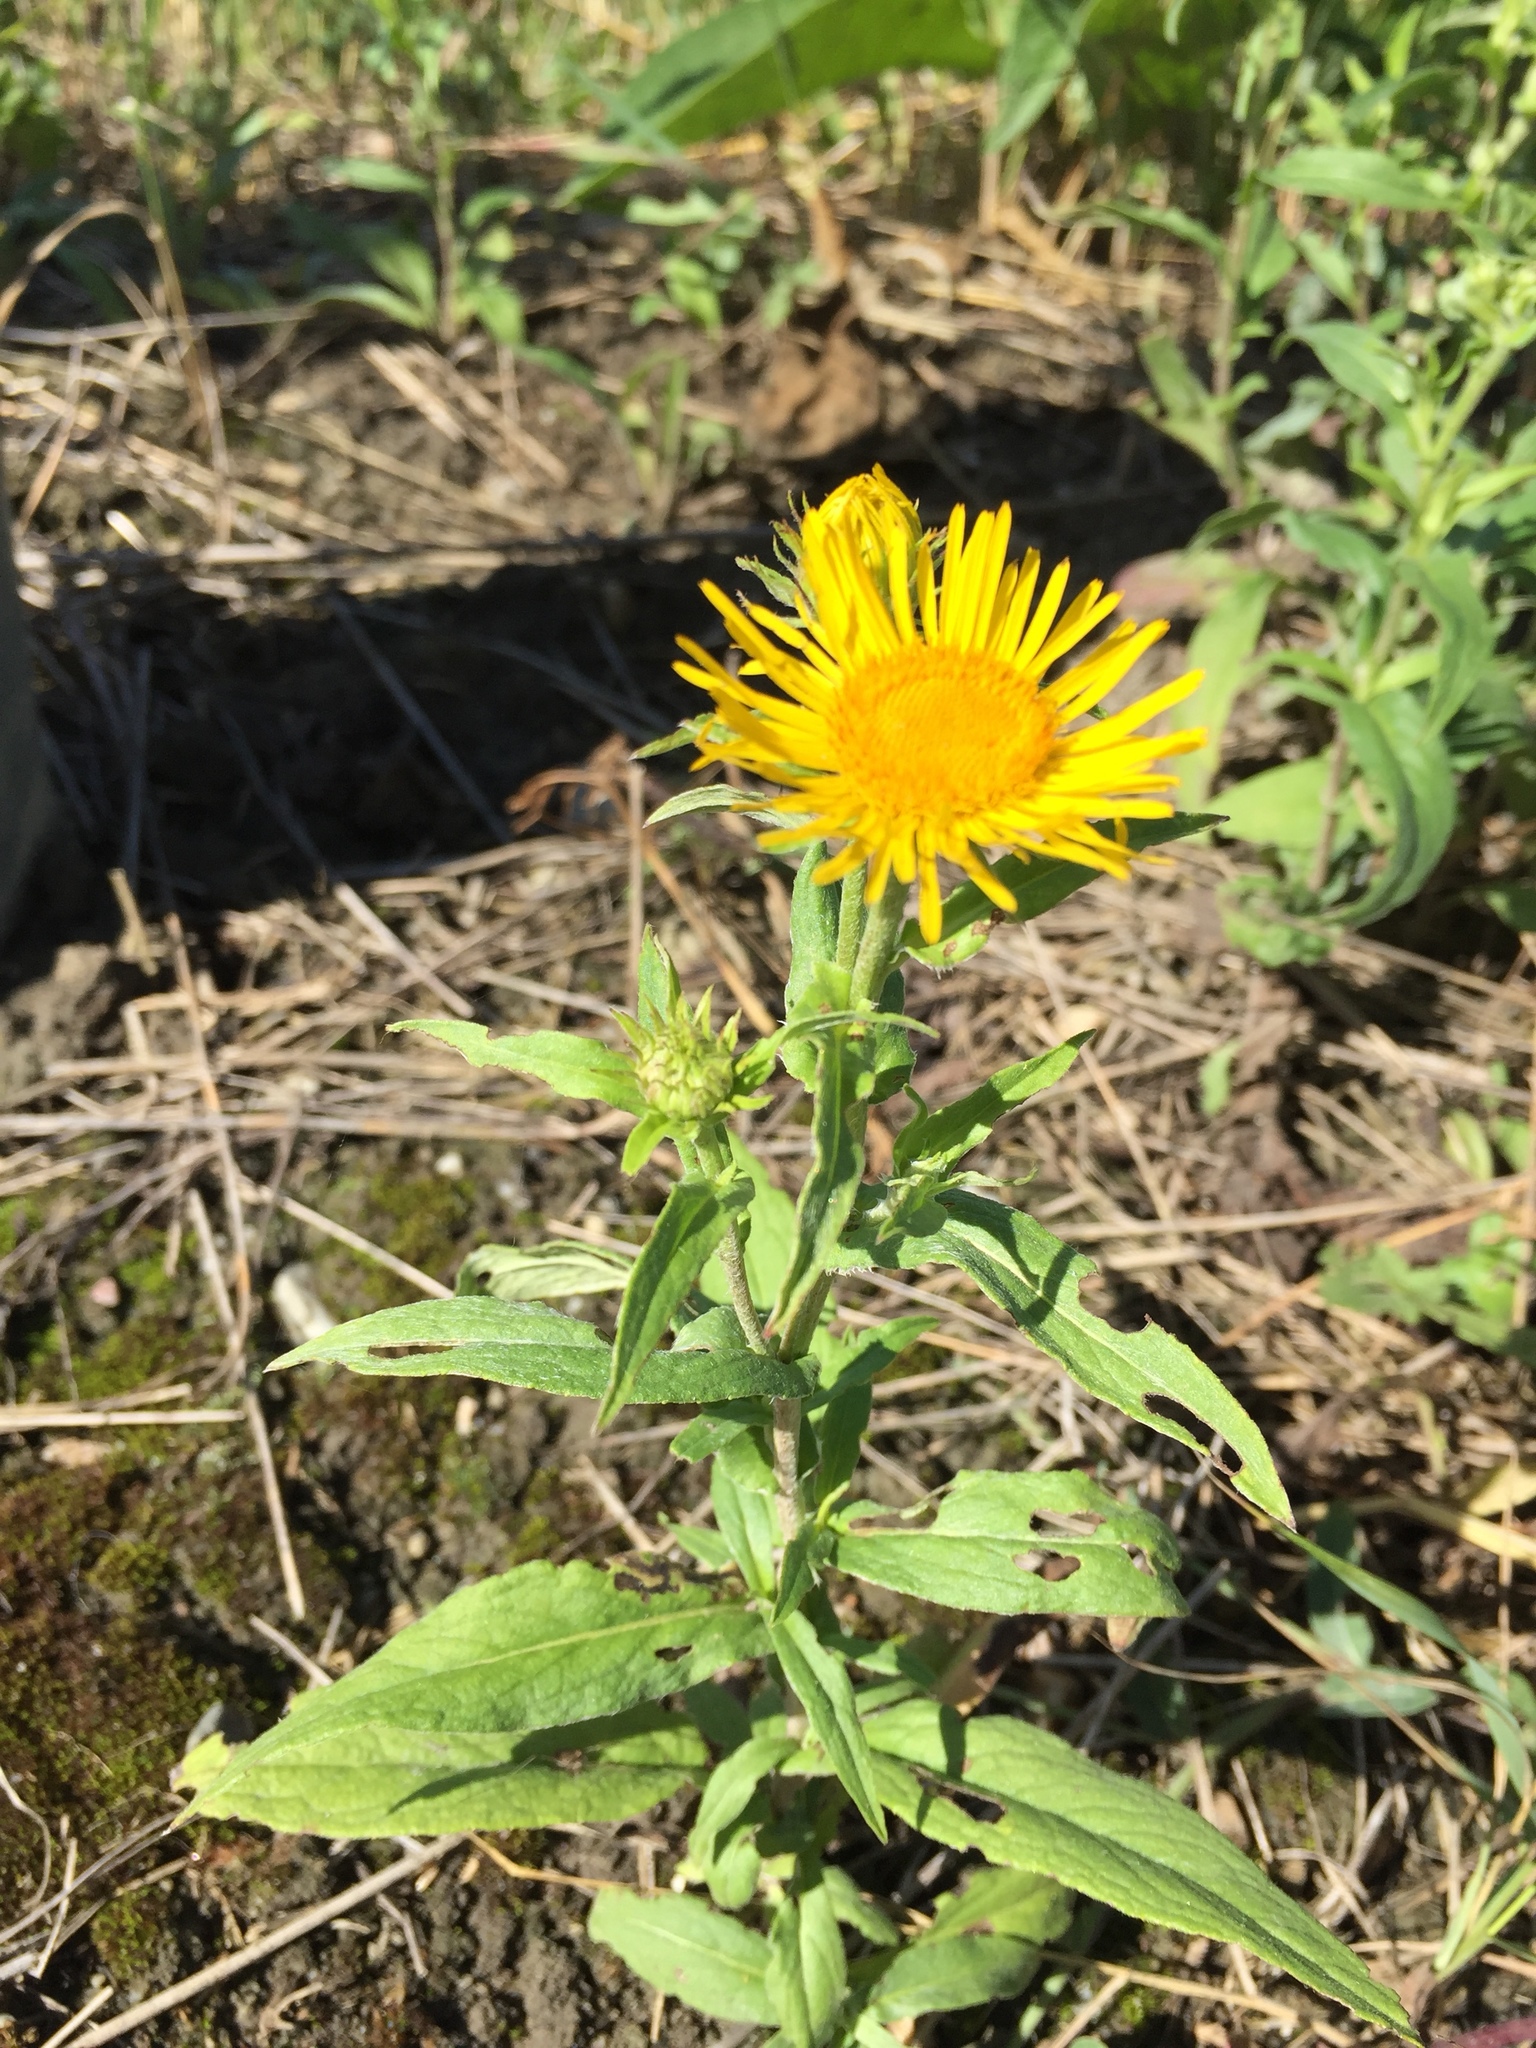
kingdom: Plantae
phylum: Tracheophyta
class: Magnoliopsida
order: Asterales
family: Asteraceae
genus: Pentanema
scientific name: Pentanema britannicum
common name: British elecampane
